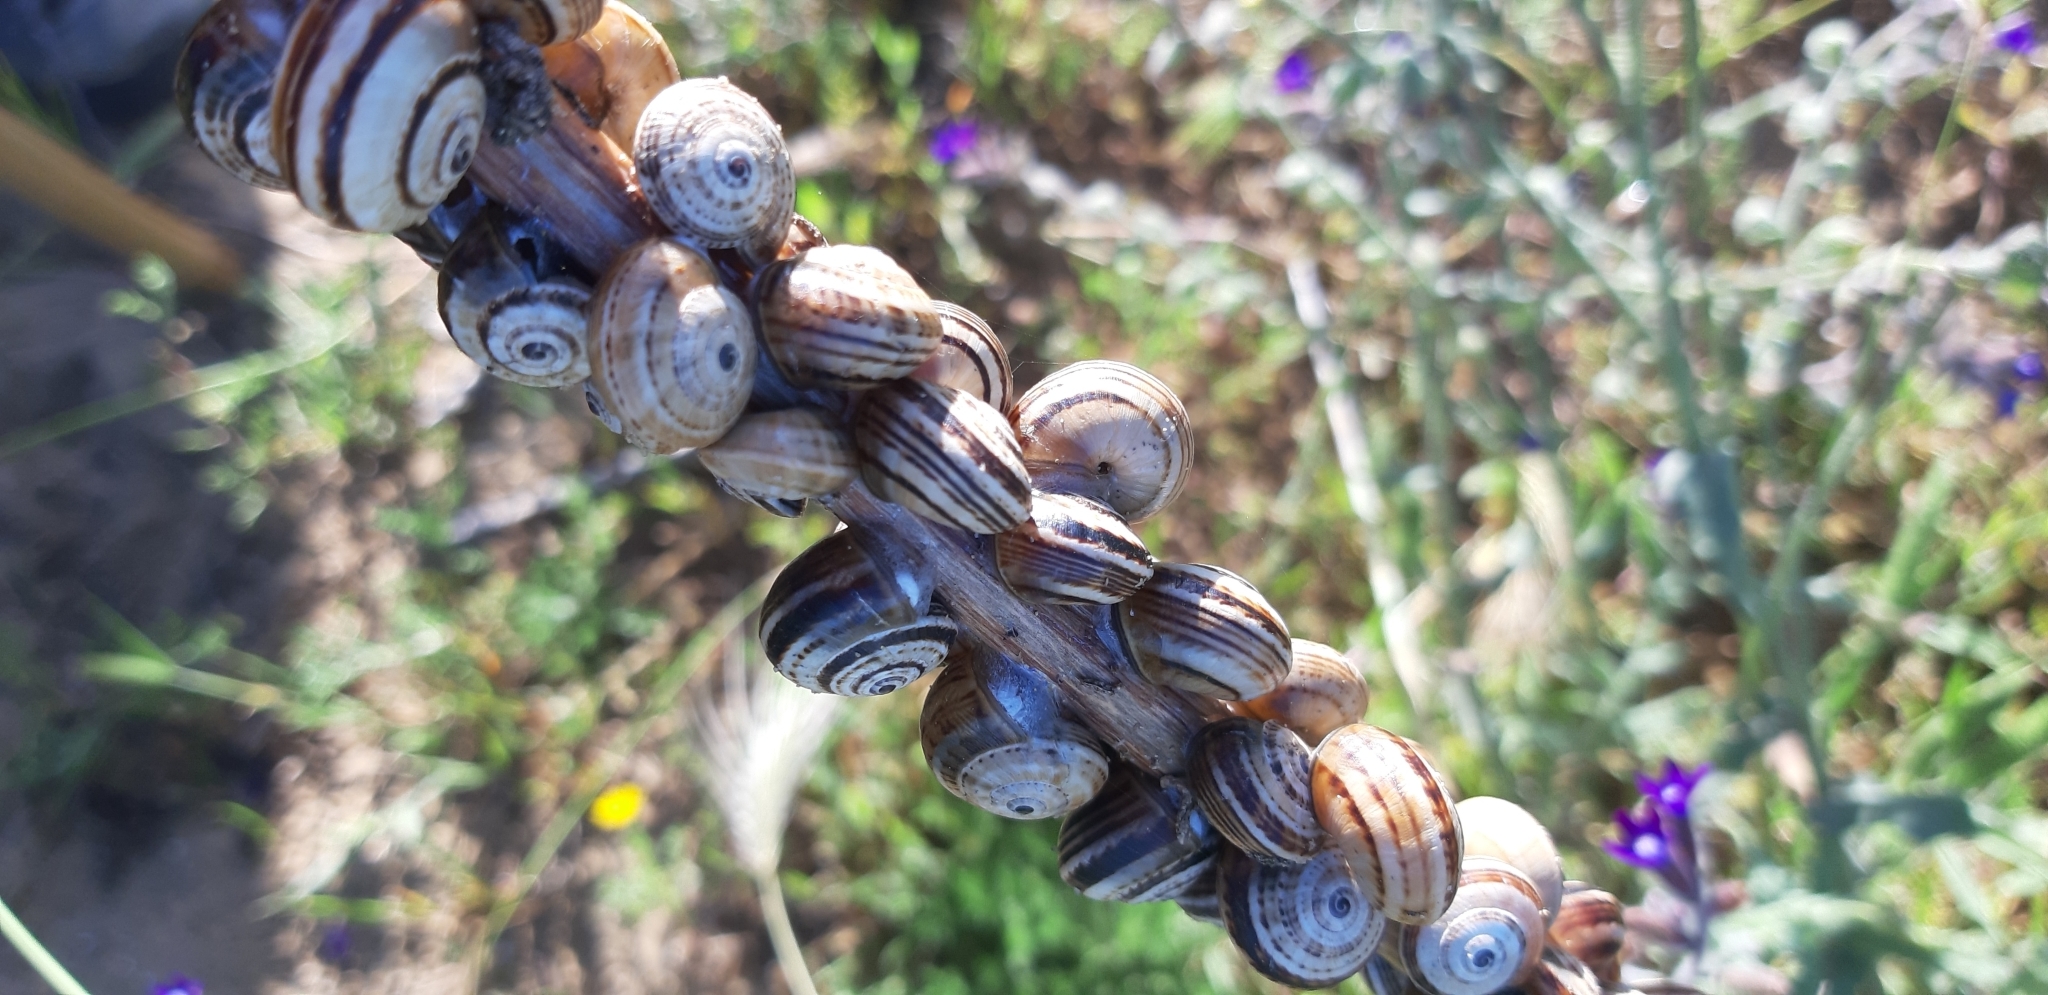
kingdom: Animalia
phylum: Mollusca
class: Gastropoda
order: Stylommatophora
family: Helicidae
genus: Theba
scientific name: Theba pisana
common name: White snail
